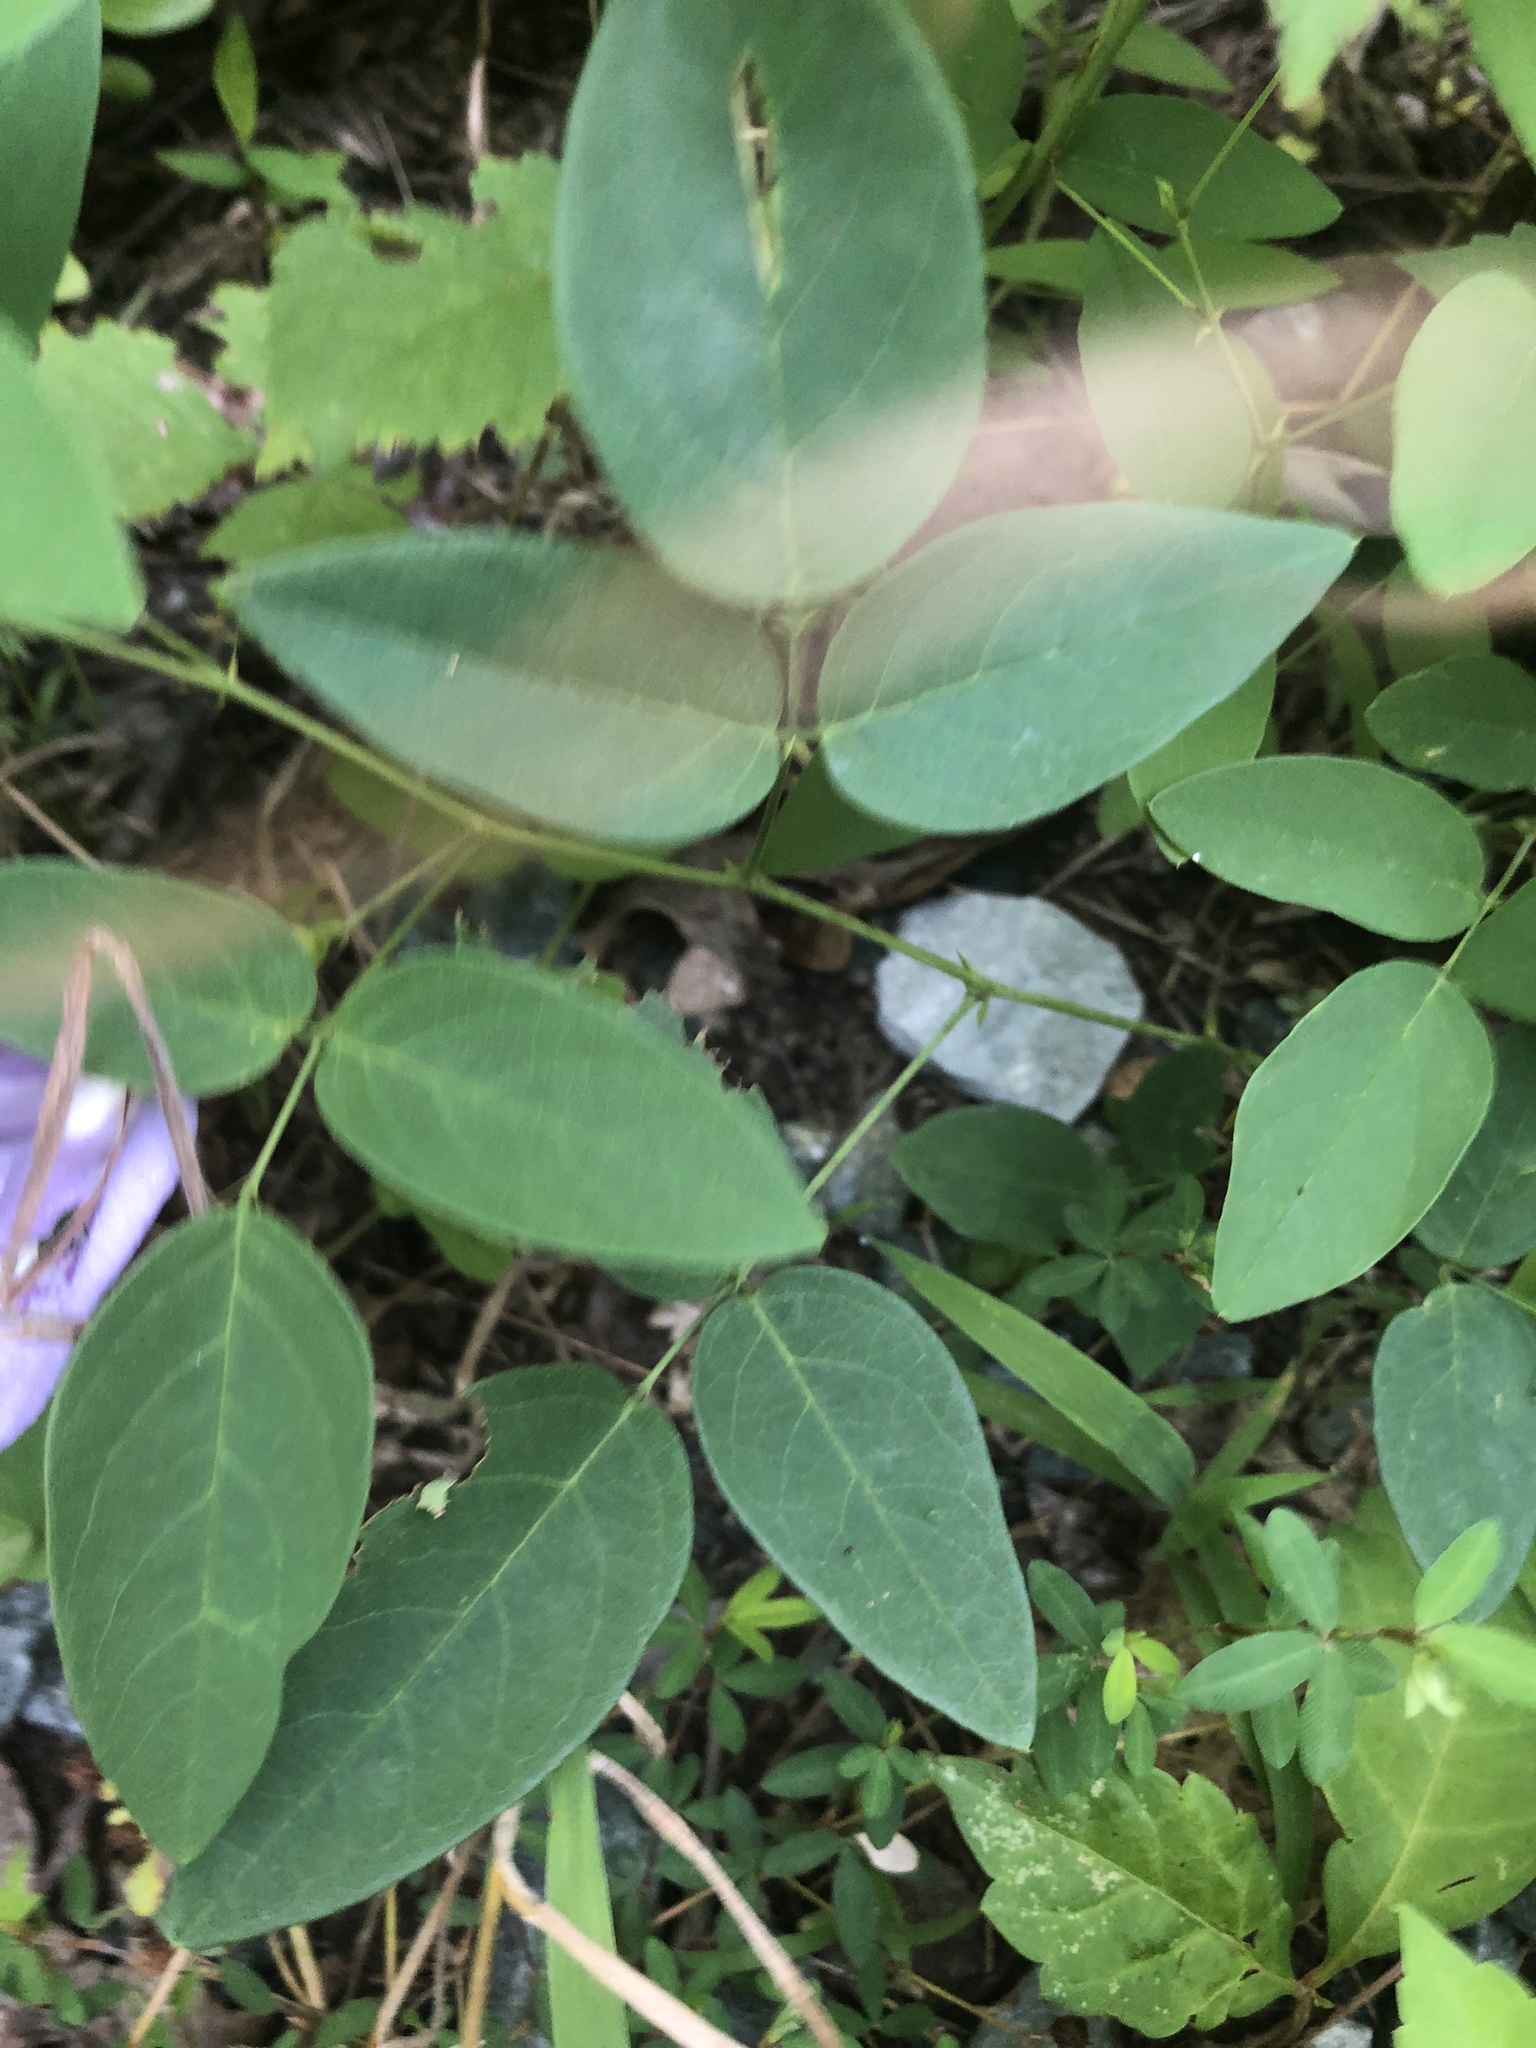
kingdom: Plantae
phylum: Tracheophyta
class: Magnoliopsida
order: Fabales
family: Fabaceae
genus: Clitoria
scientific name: Clitoria mariana
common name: Butterfly-pea
